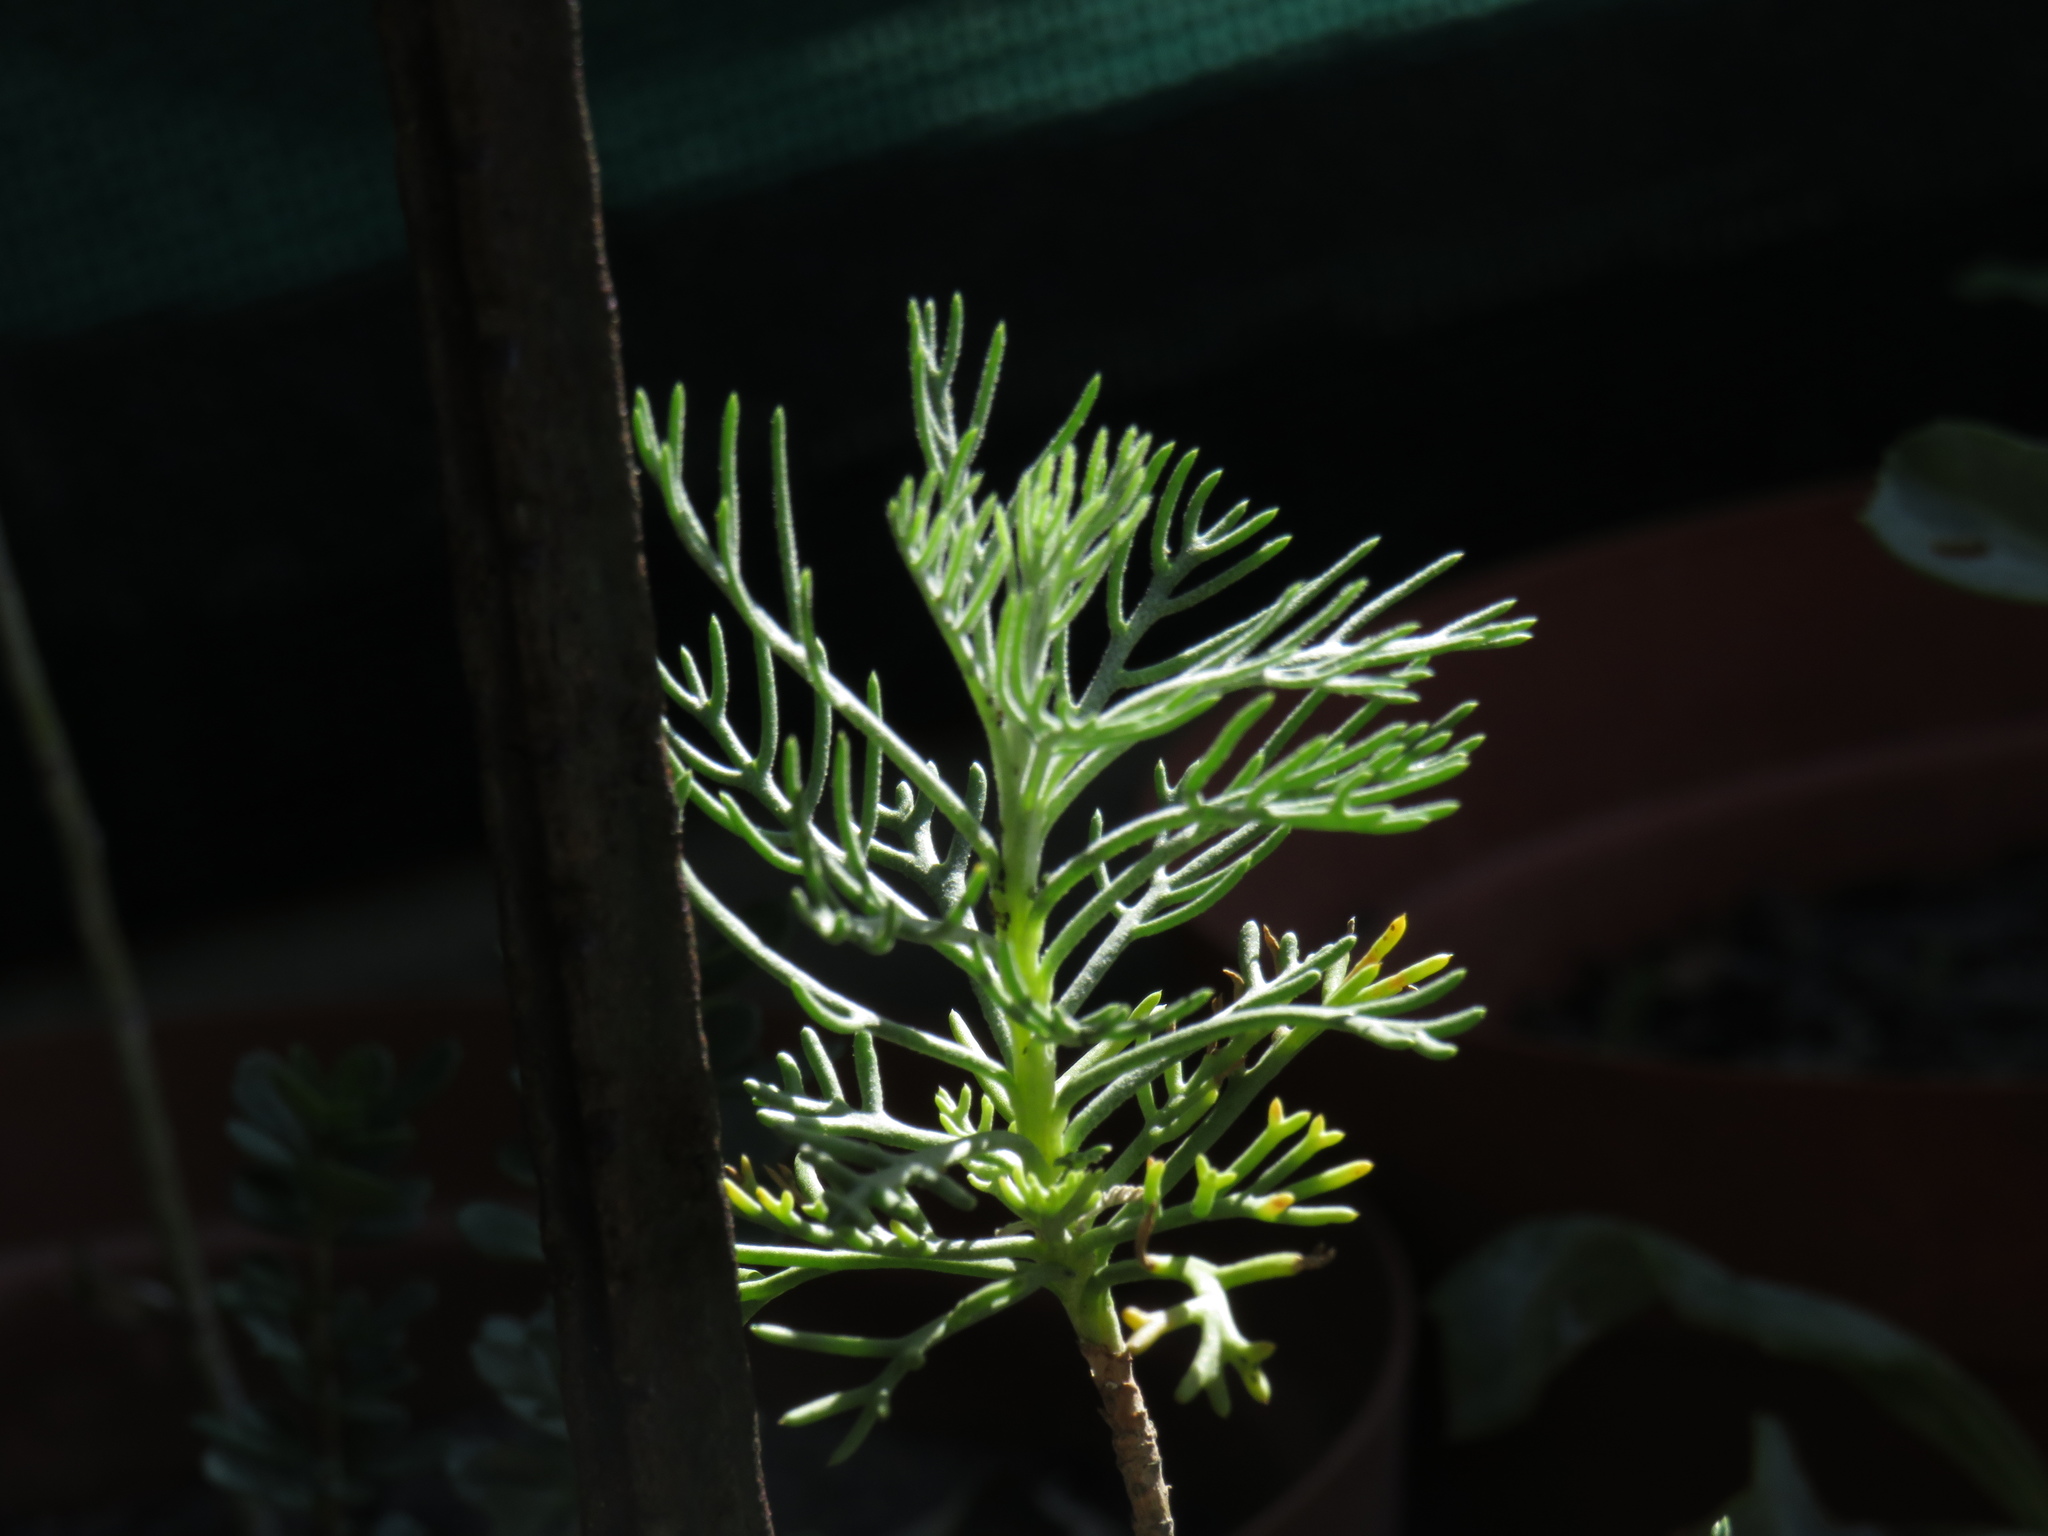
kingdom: Plantae
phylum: Tracheophyta
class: Magnoliopsida
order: Asterales
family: Asteraceae
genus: Athanasia
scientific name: Athanasia crithmifolia
